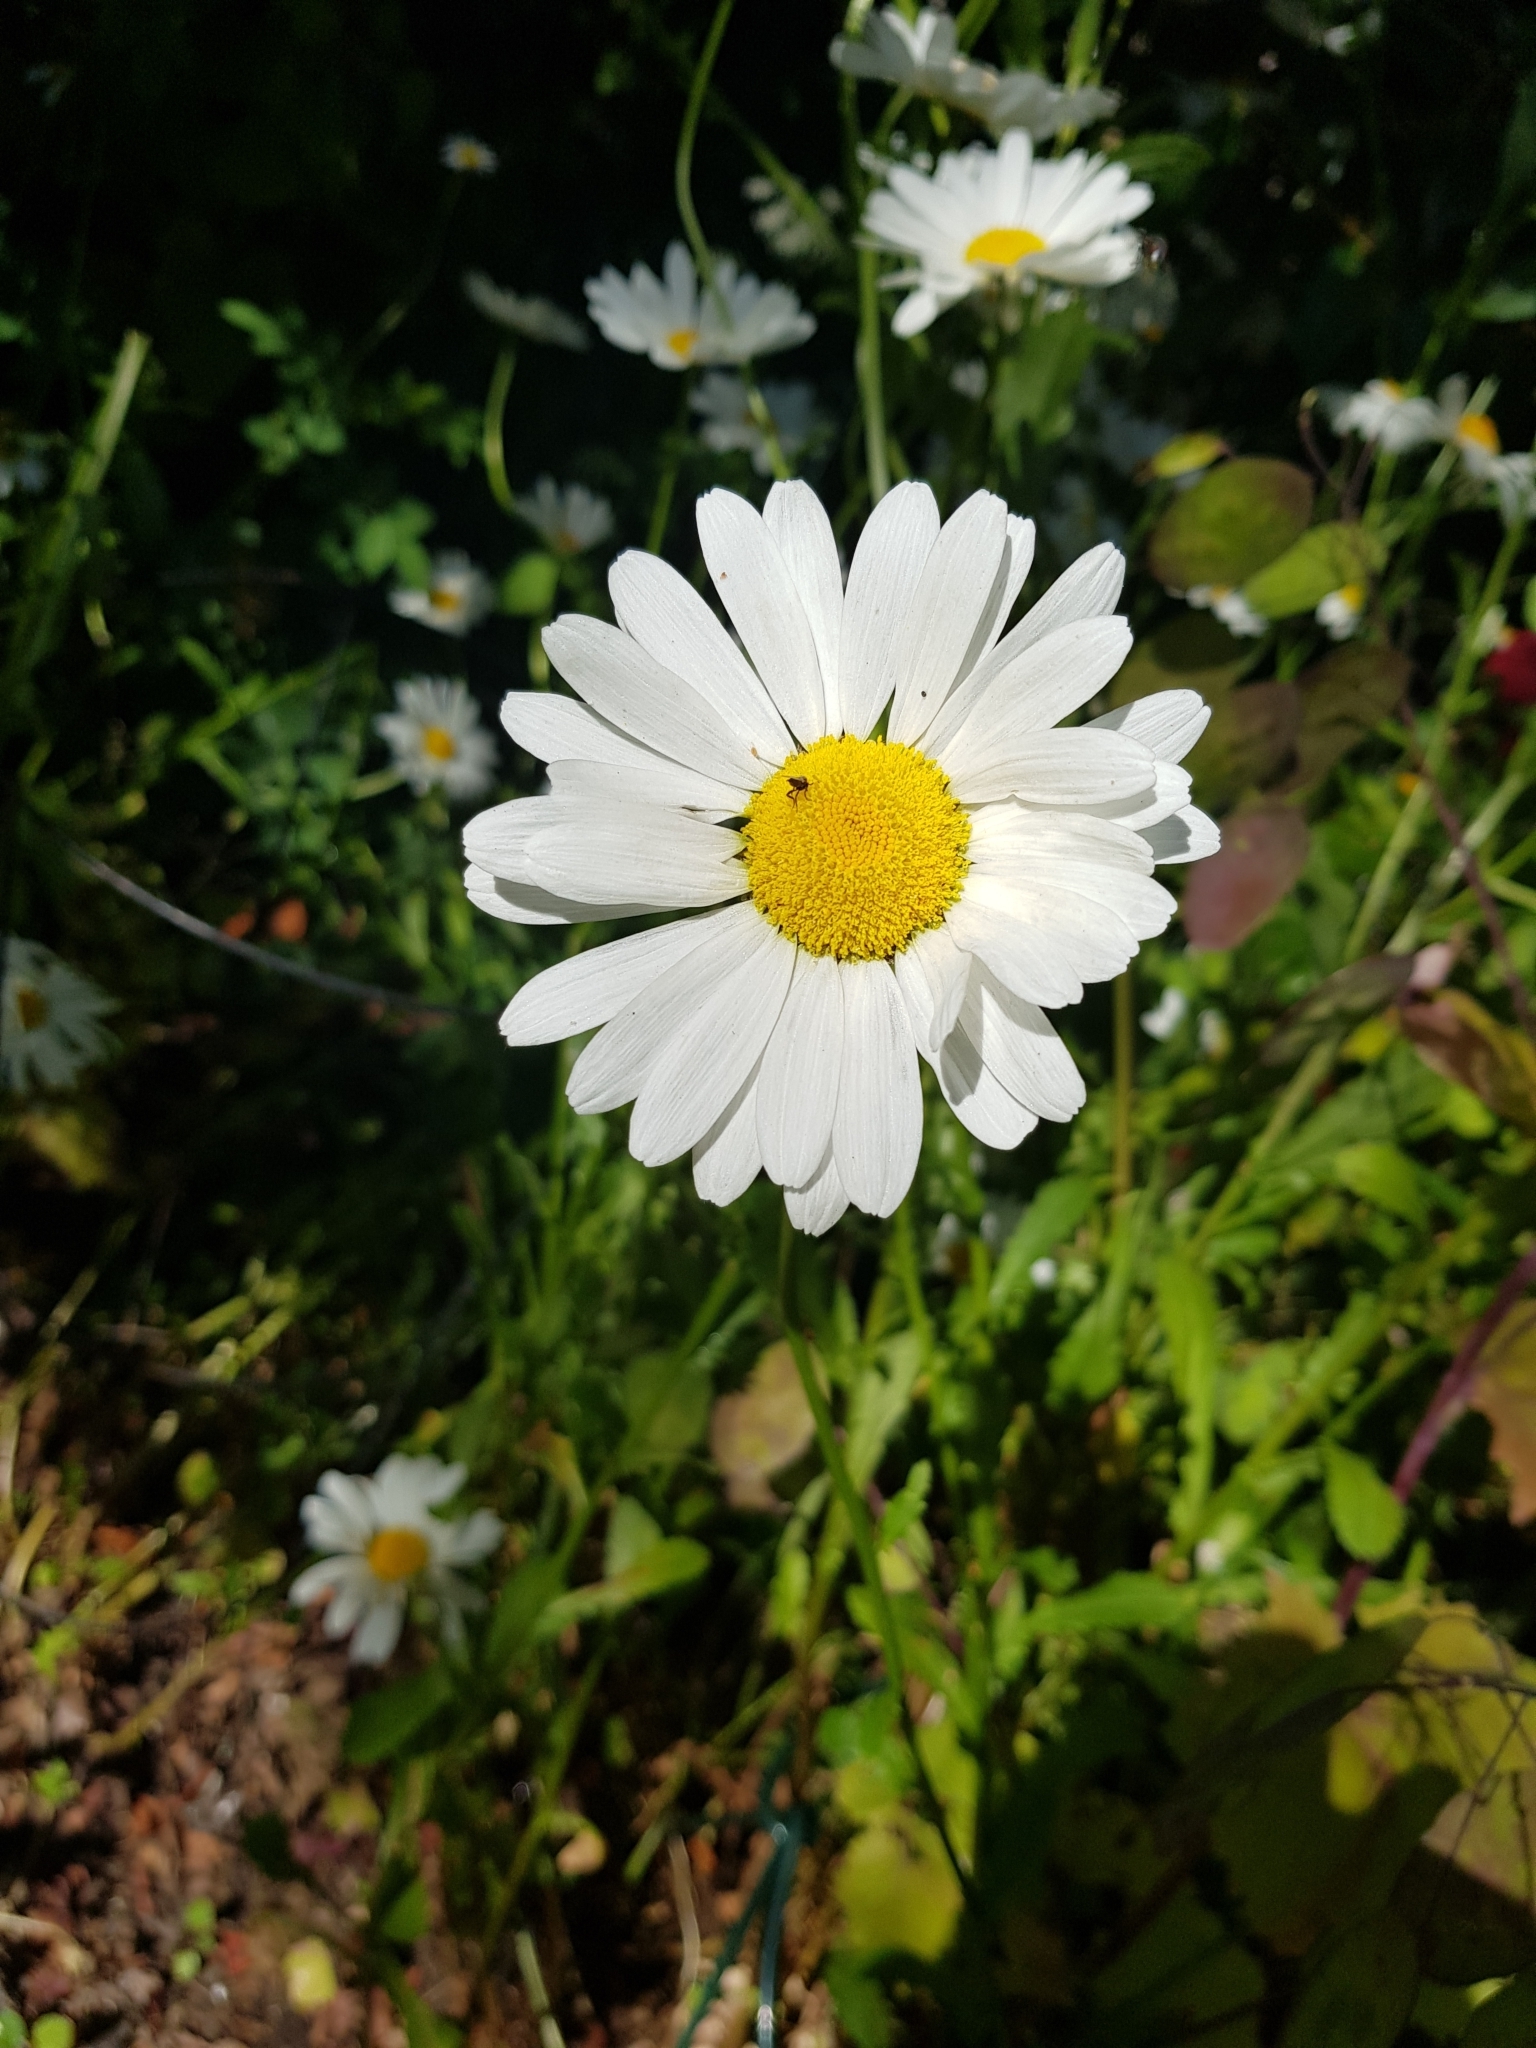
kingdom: Plantae
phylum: Tracheophyta
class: Magnoliopsida
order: Asterales
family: Asteraceae
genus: Leucanthemum
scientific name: Leucanthemum vulgare
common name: Oxeye daisy
